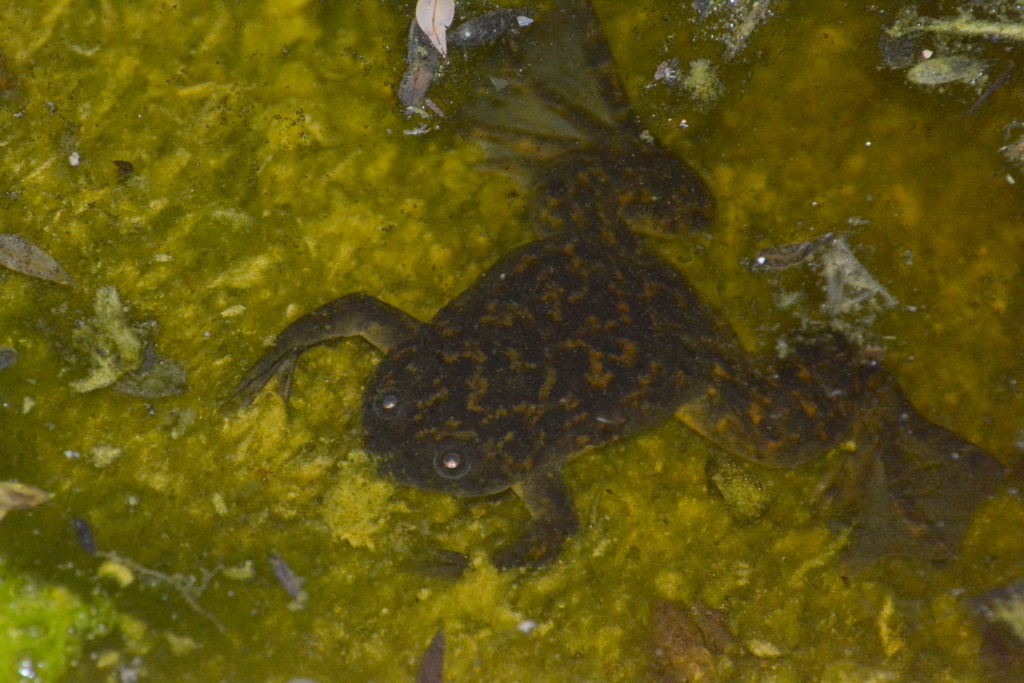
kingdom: Animalia
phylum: Chordata
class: Amphibia
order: Anura
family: Pipidae
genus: Xenopus
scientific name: Xenopus laevis
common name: African clawed frog
